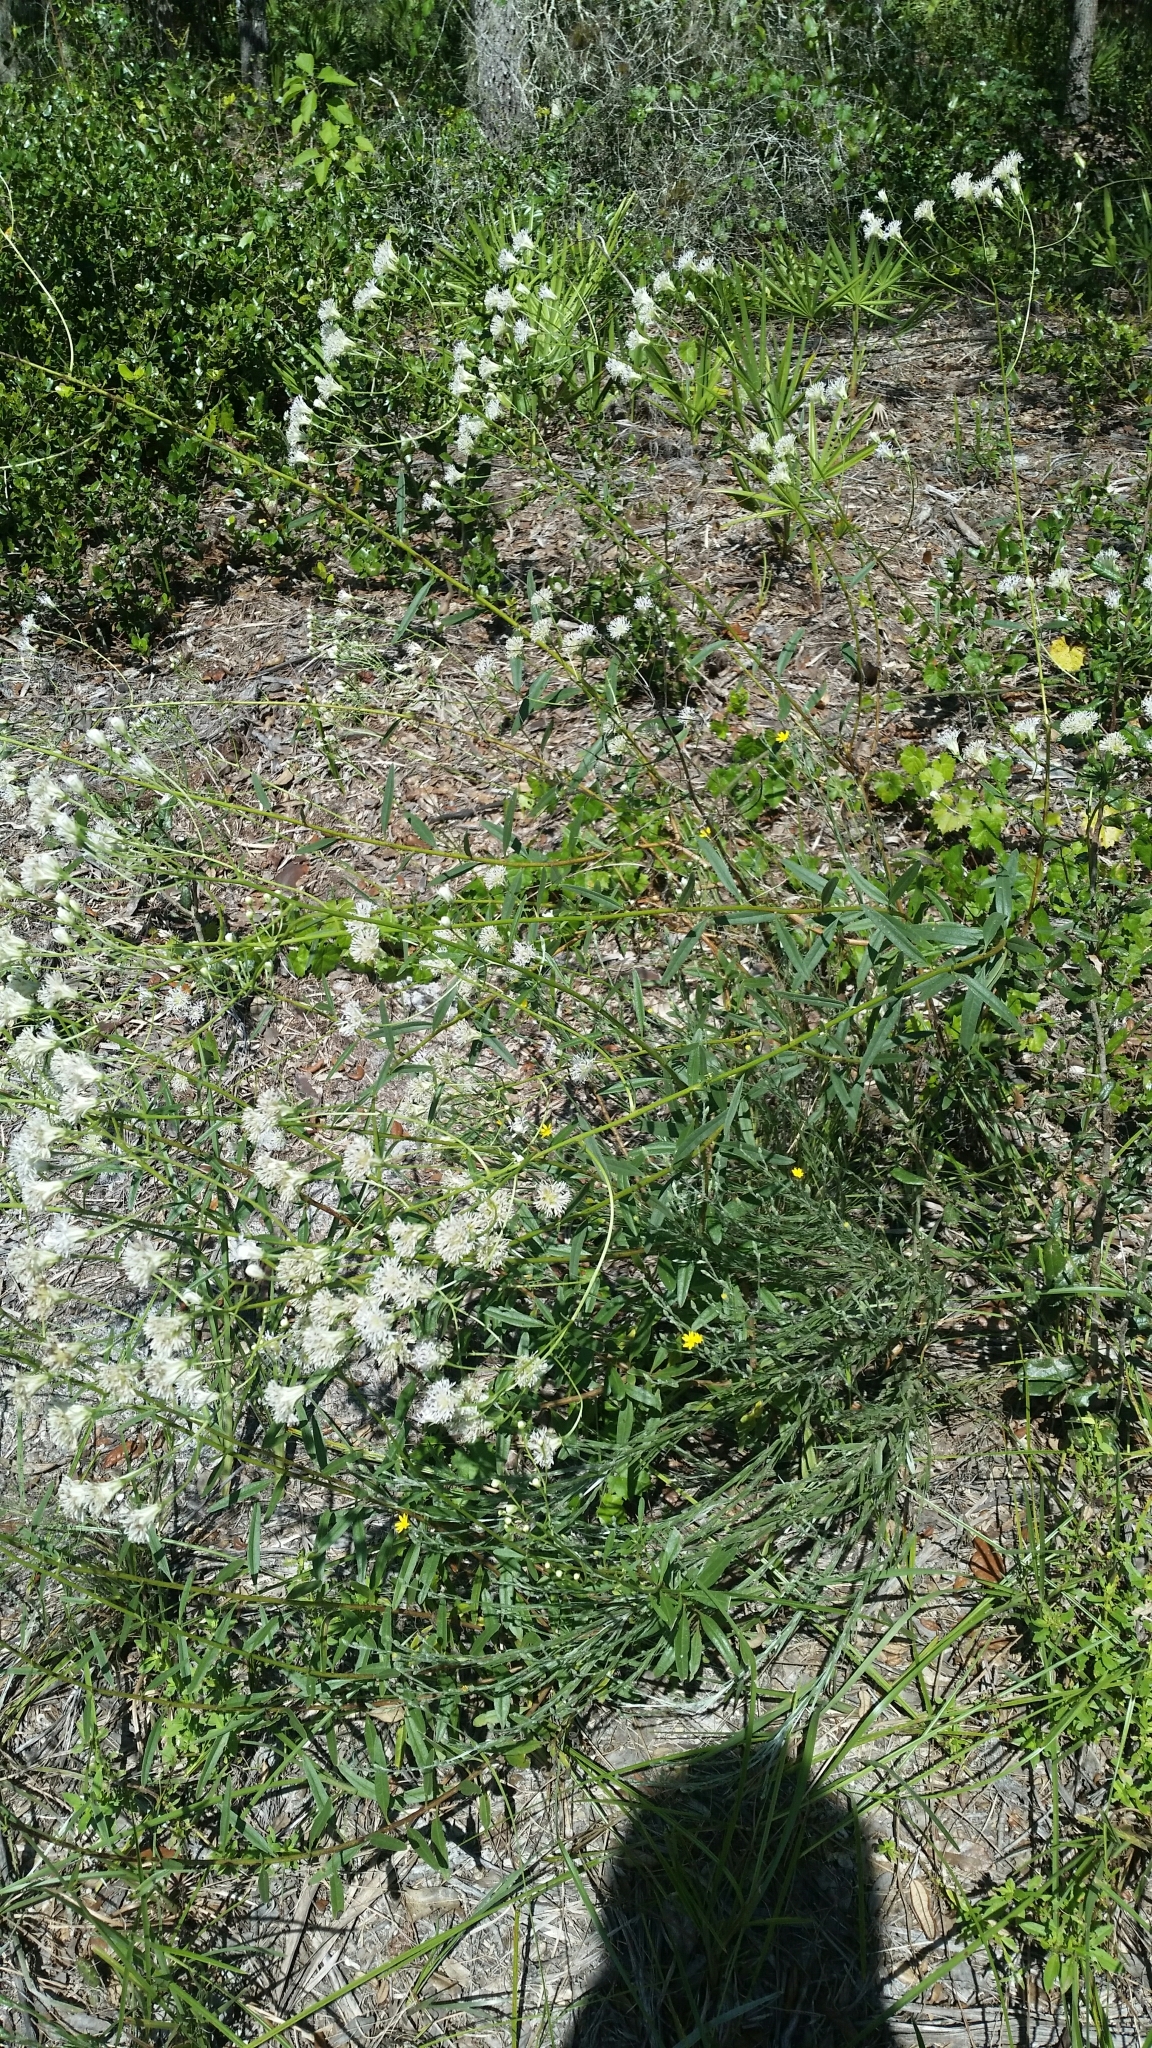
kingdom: Plantae
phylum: Tracheophyta
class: Magnoliopsida
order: Asterales
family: Asteraceae
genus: Palafoxia
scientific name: Palafoxia integrifolia
